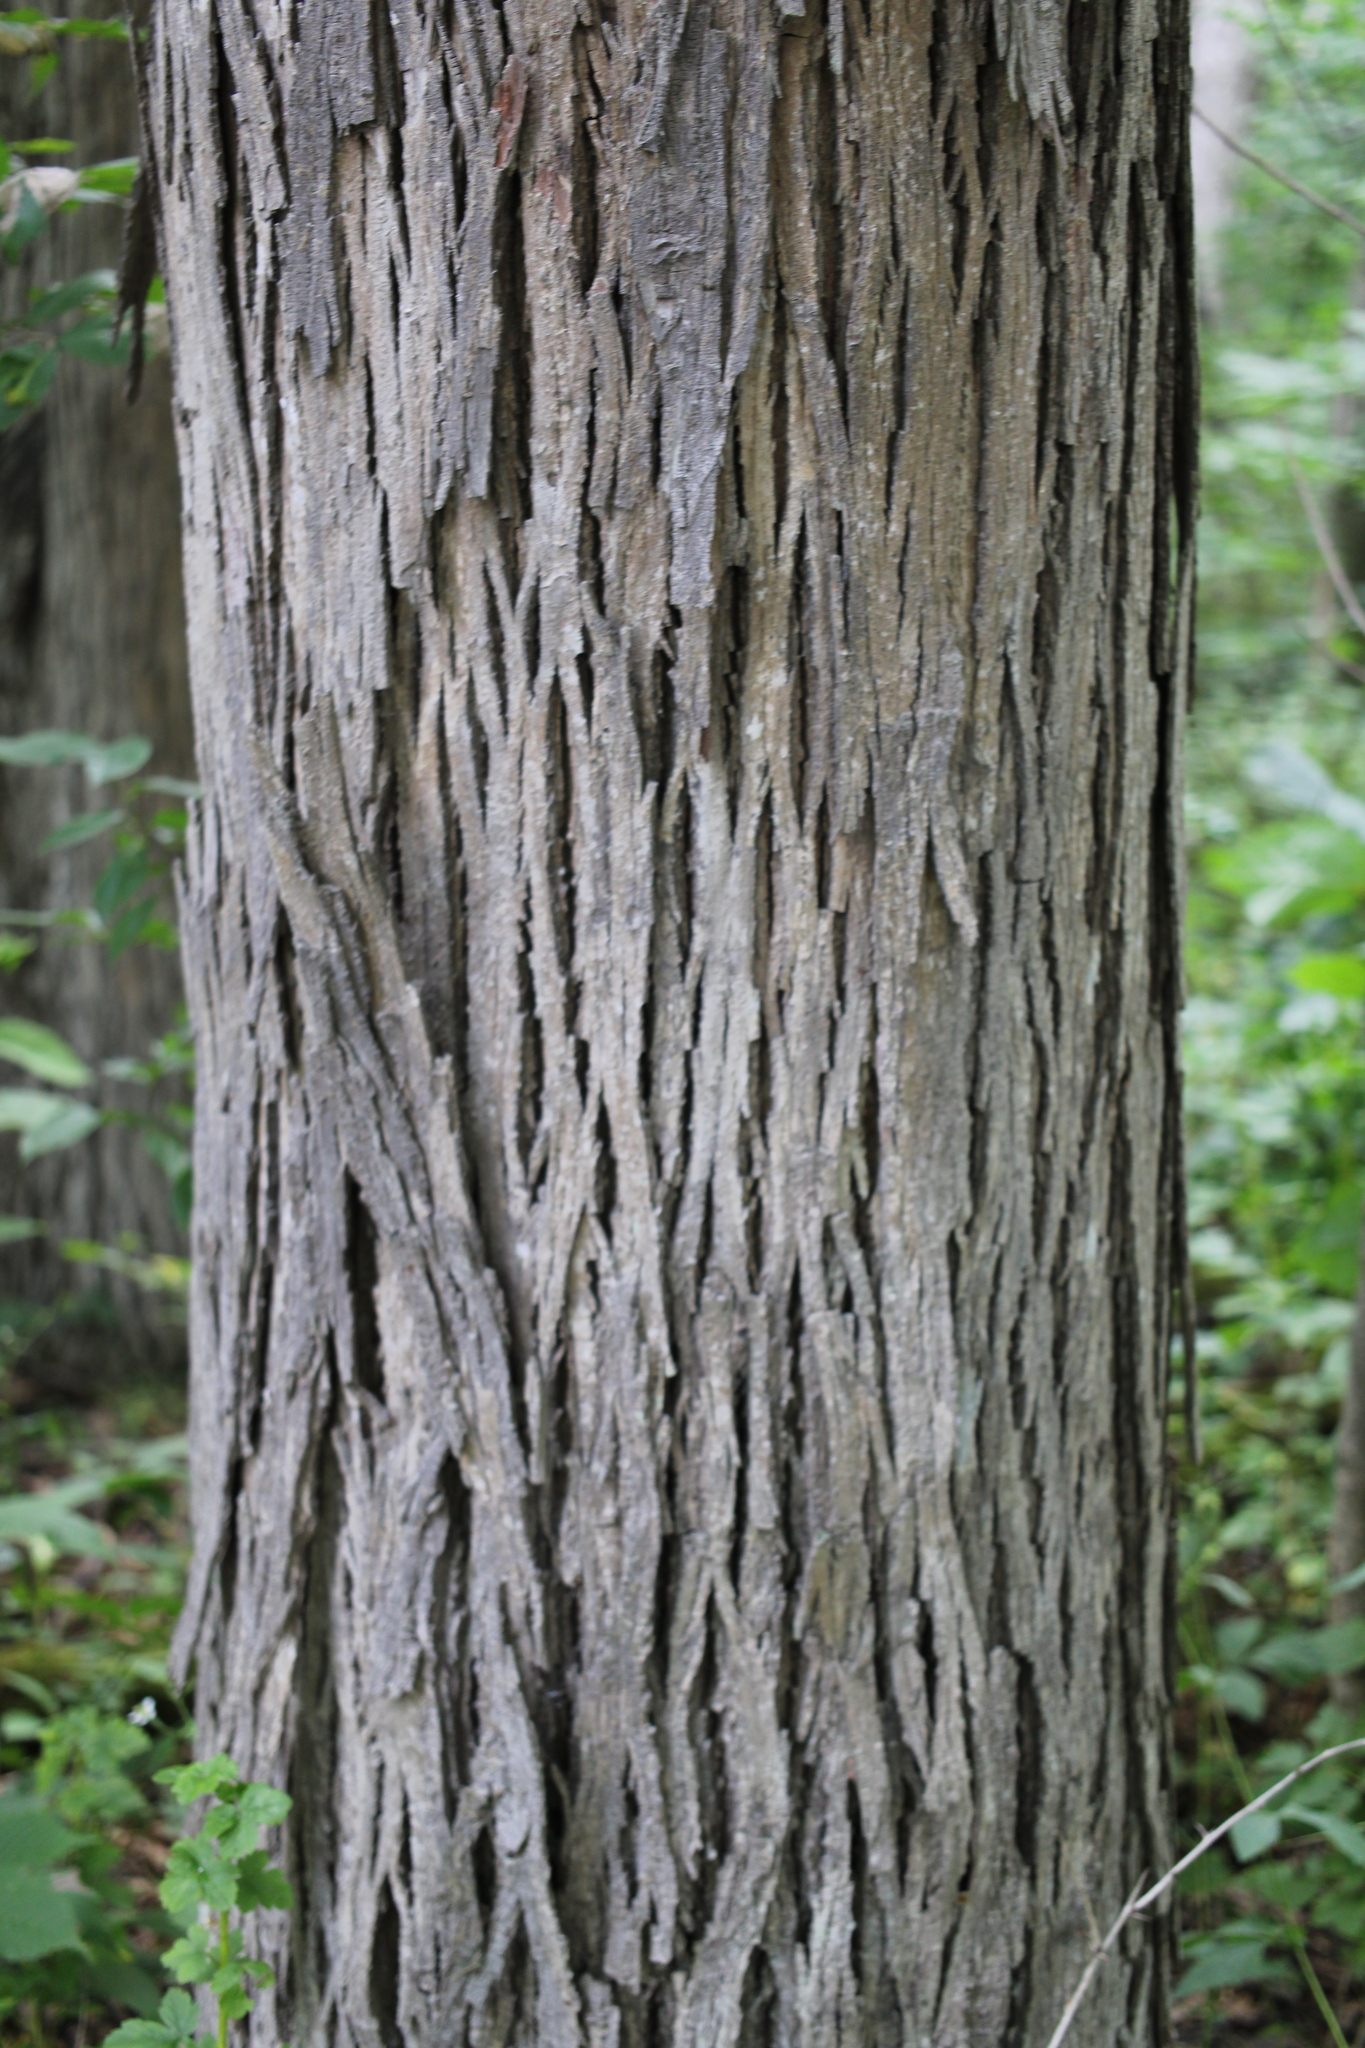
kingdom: Plantae
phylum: Tracheophyta
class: Magnoliopsida
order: Fagales
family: Juglandaceae
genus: Carya
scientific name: Carya ovata
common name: Shagbark hickory
